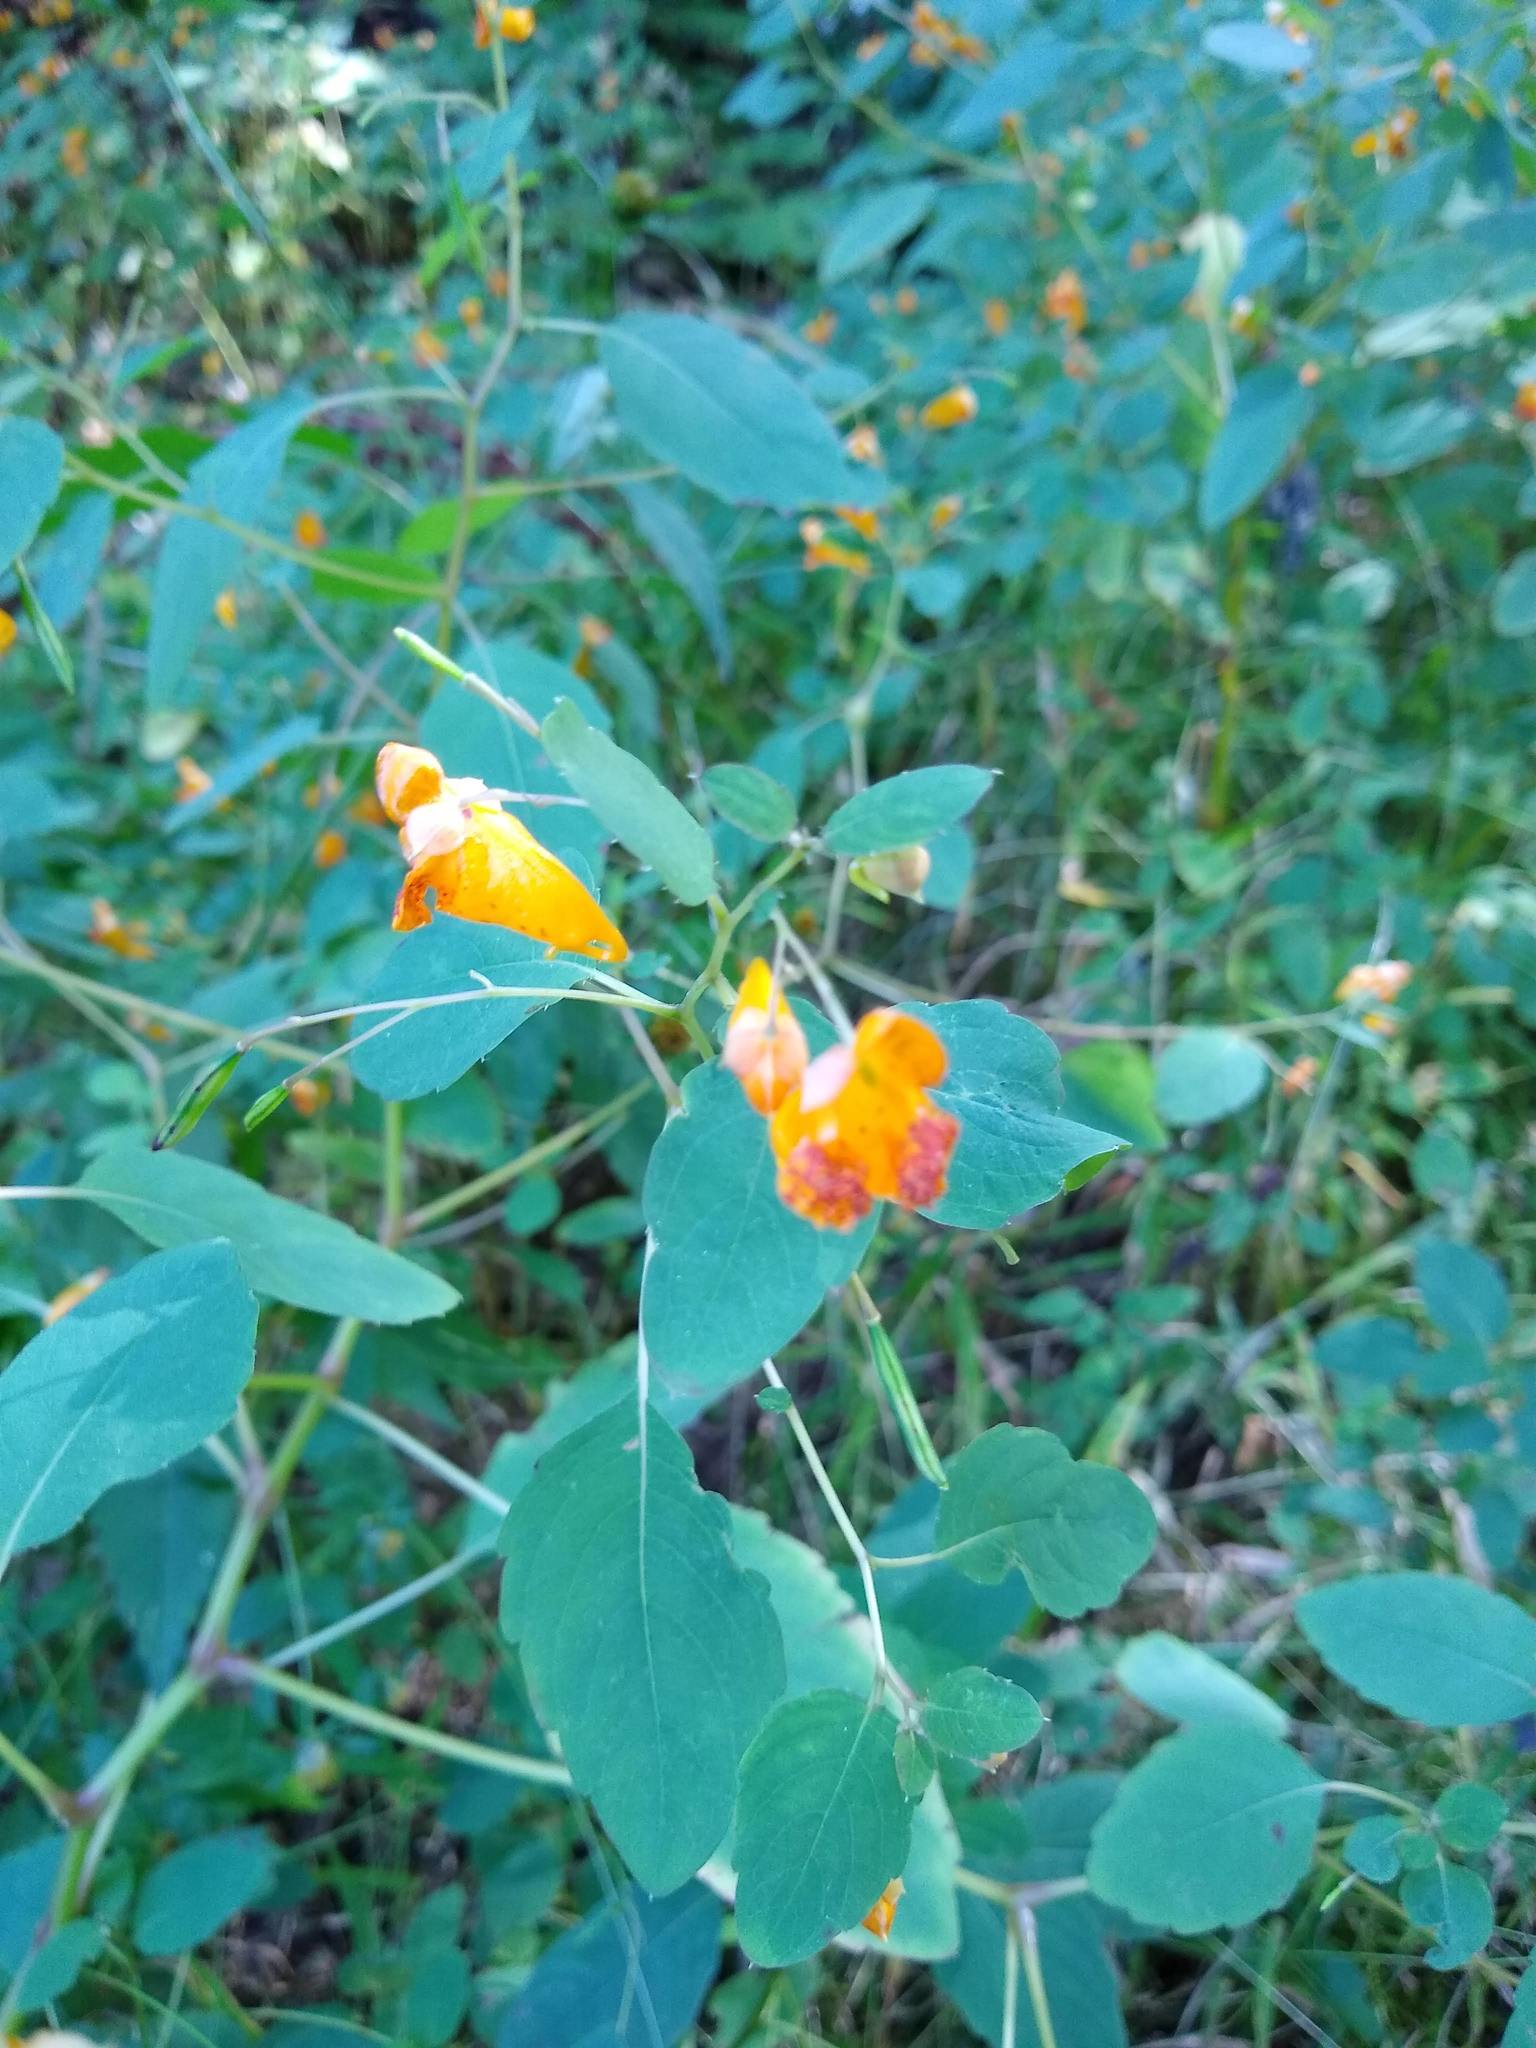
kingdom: Plantae
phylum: Tracheophyta
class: Magnoliopsida
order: Ericales
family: Balsaminaceae
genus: Impatiens
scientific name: Impatiens capensis
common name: Orange balsam
